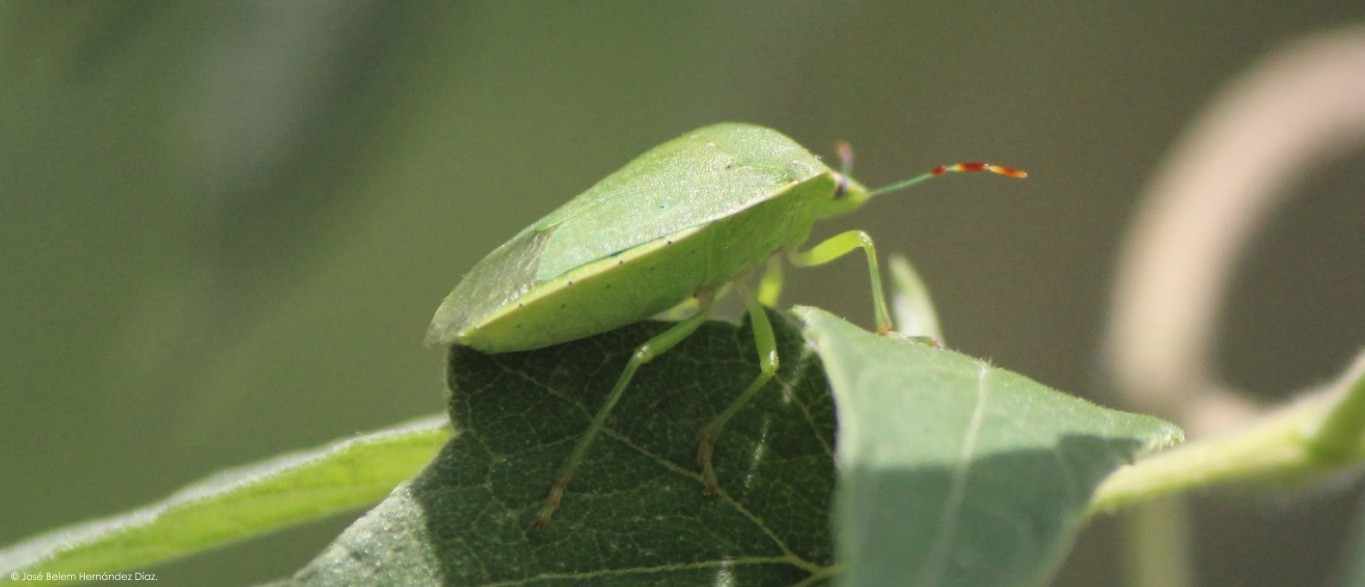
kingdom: Animalia
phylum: Arthropoda
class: Insecta
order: Hemiptera
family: Pentatomidae
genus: Nezara
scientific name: Nezara viridula
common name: Southern green stink bug
